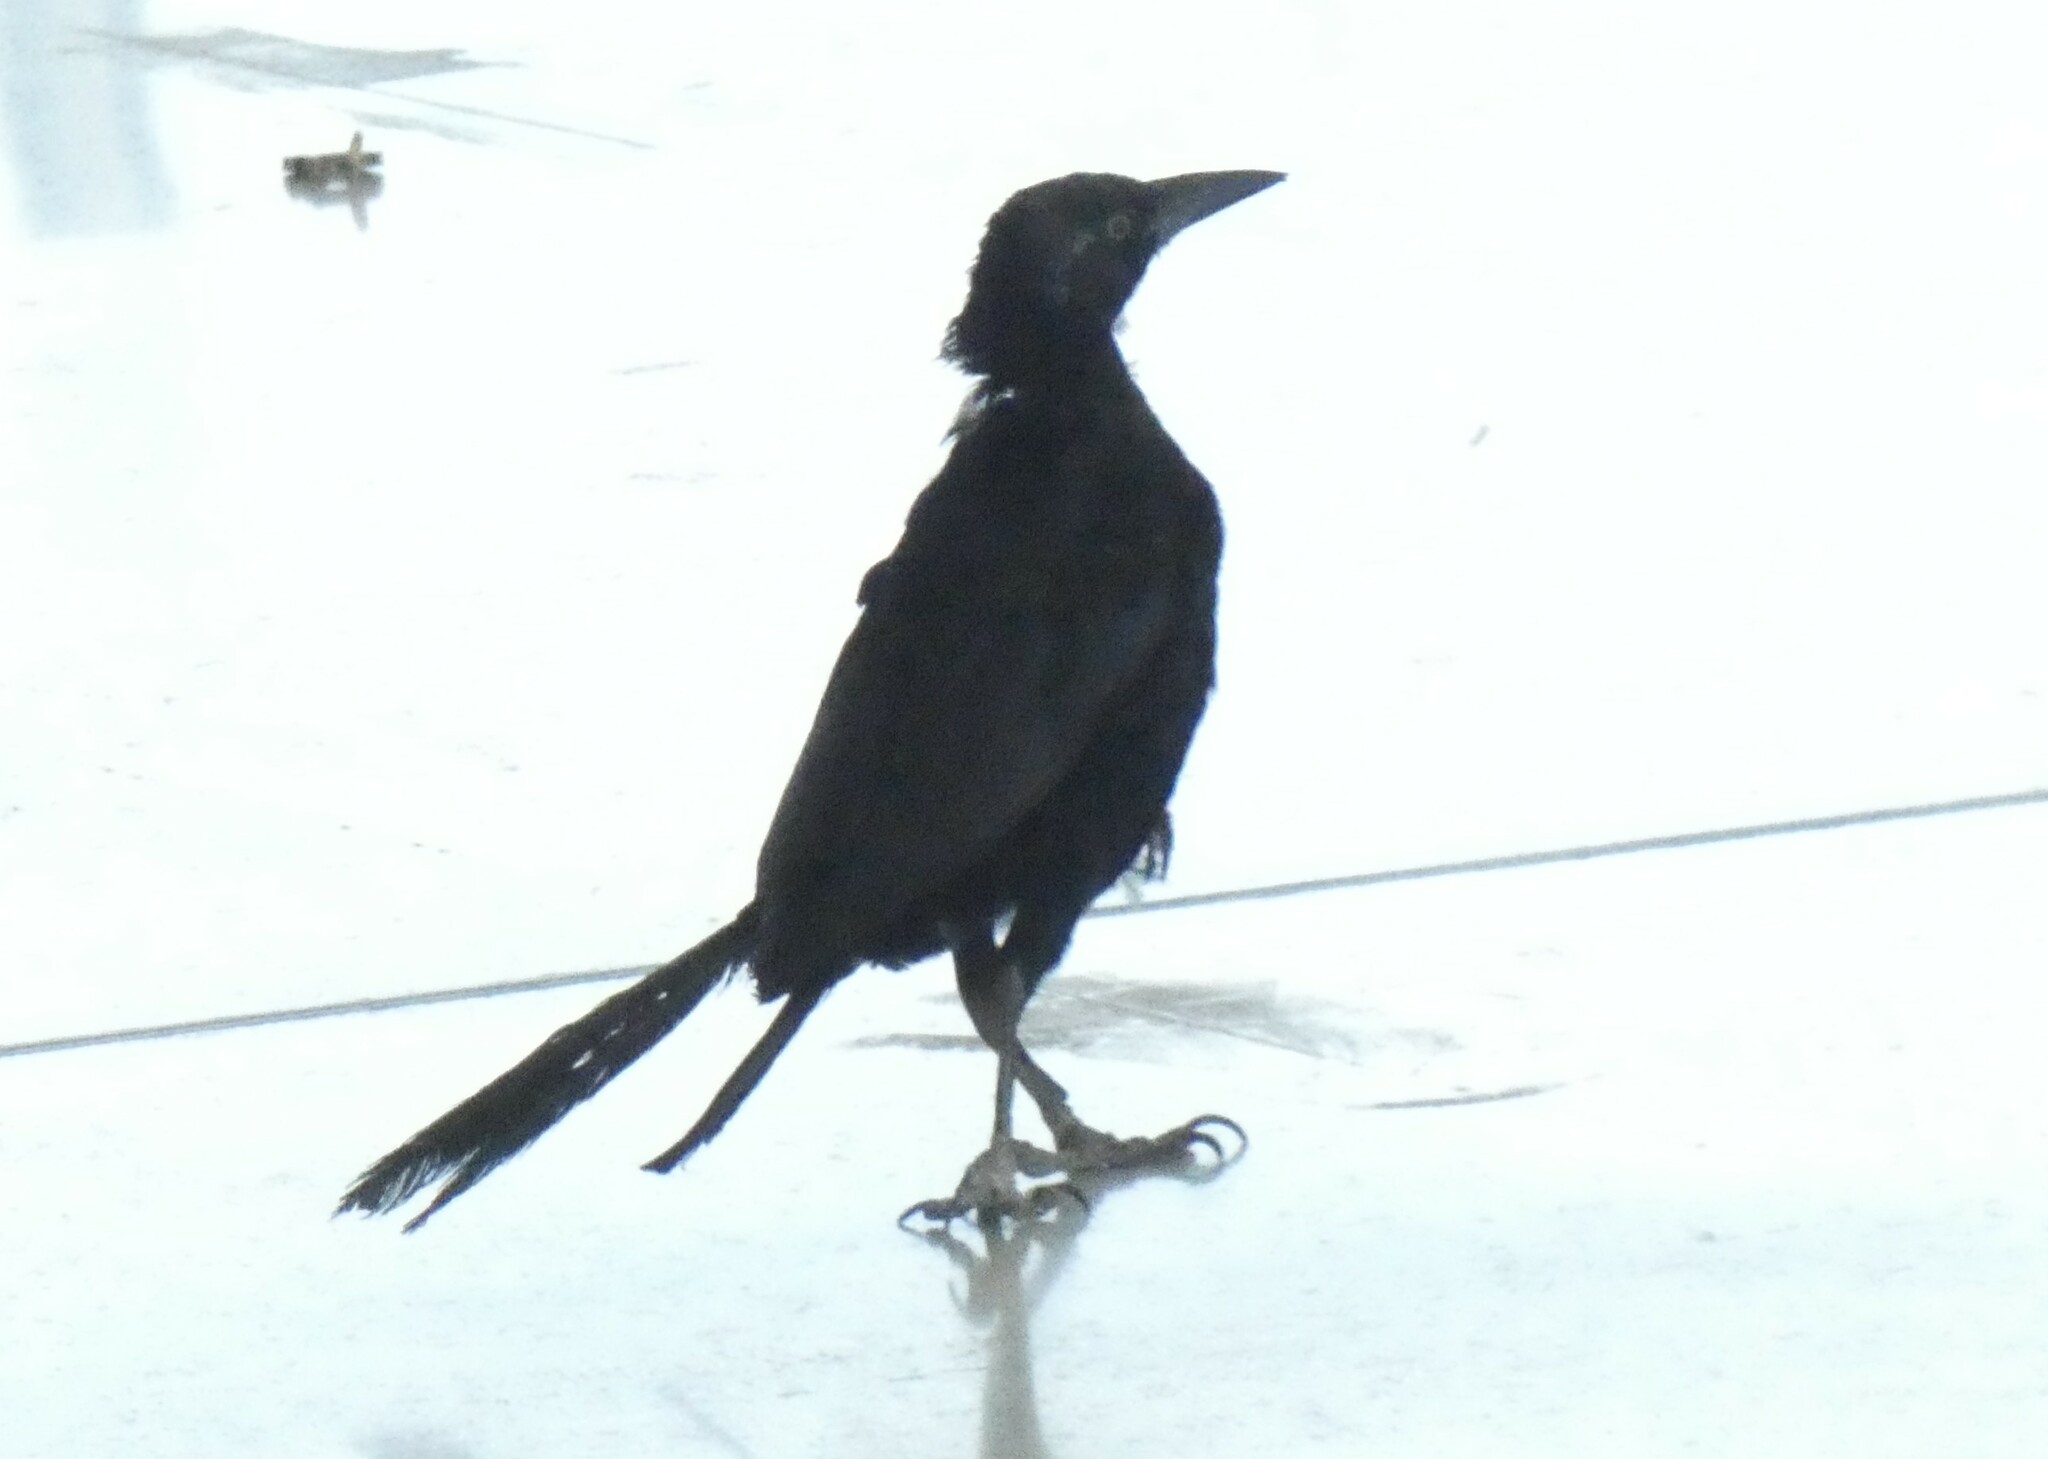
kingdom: Animalia
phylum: Chordata
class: Aves
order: Passeriformes
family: Icteridae
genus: Quiscalus
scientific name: Quiscalus mexicanus
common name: Great-tailed grackle
